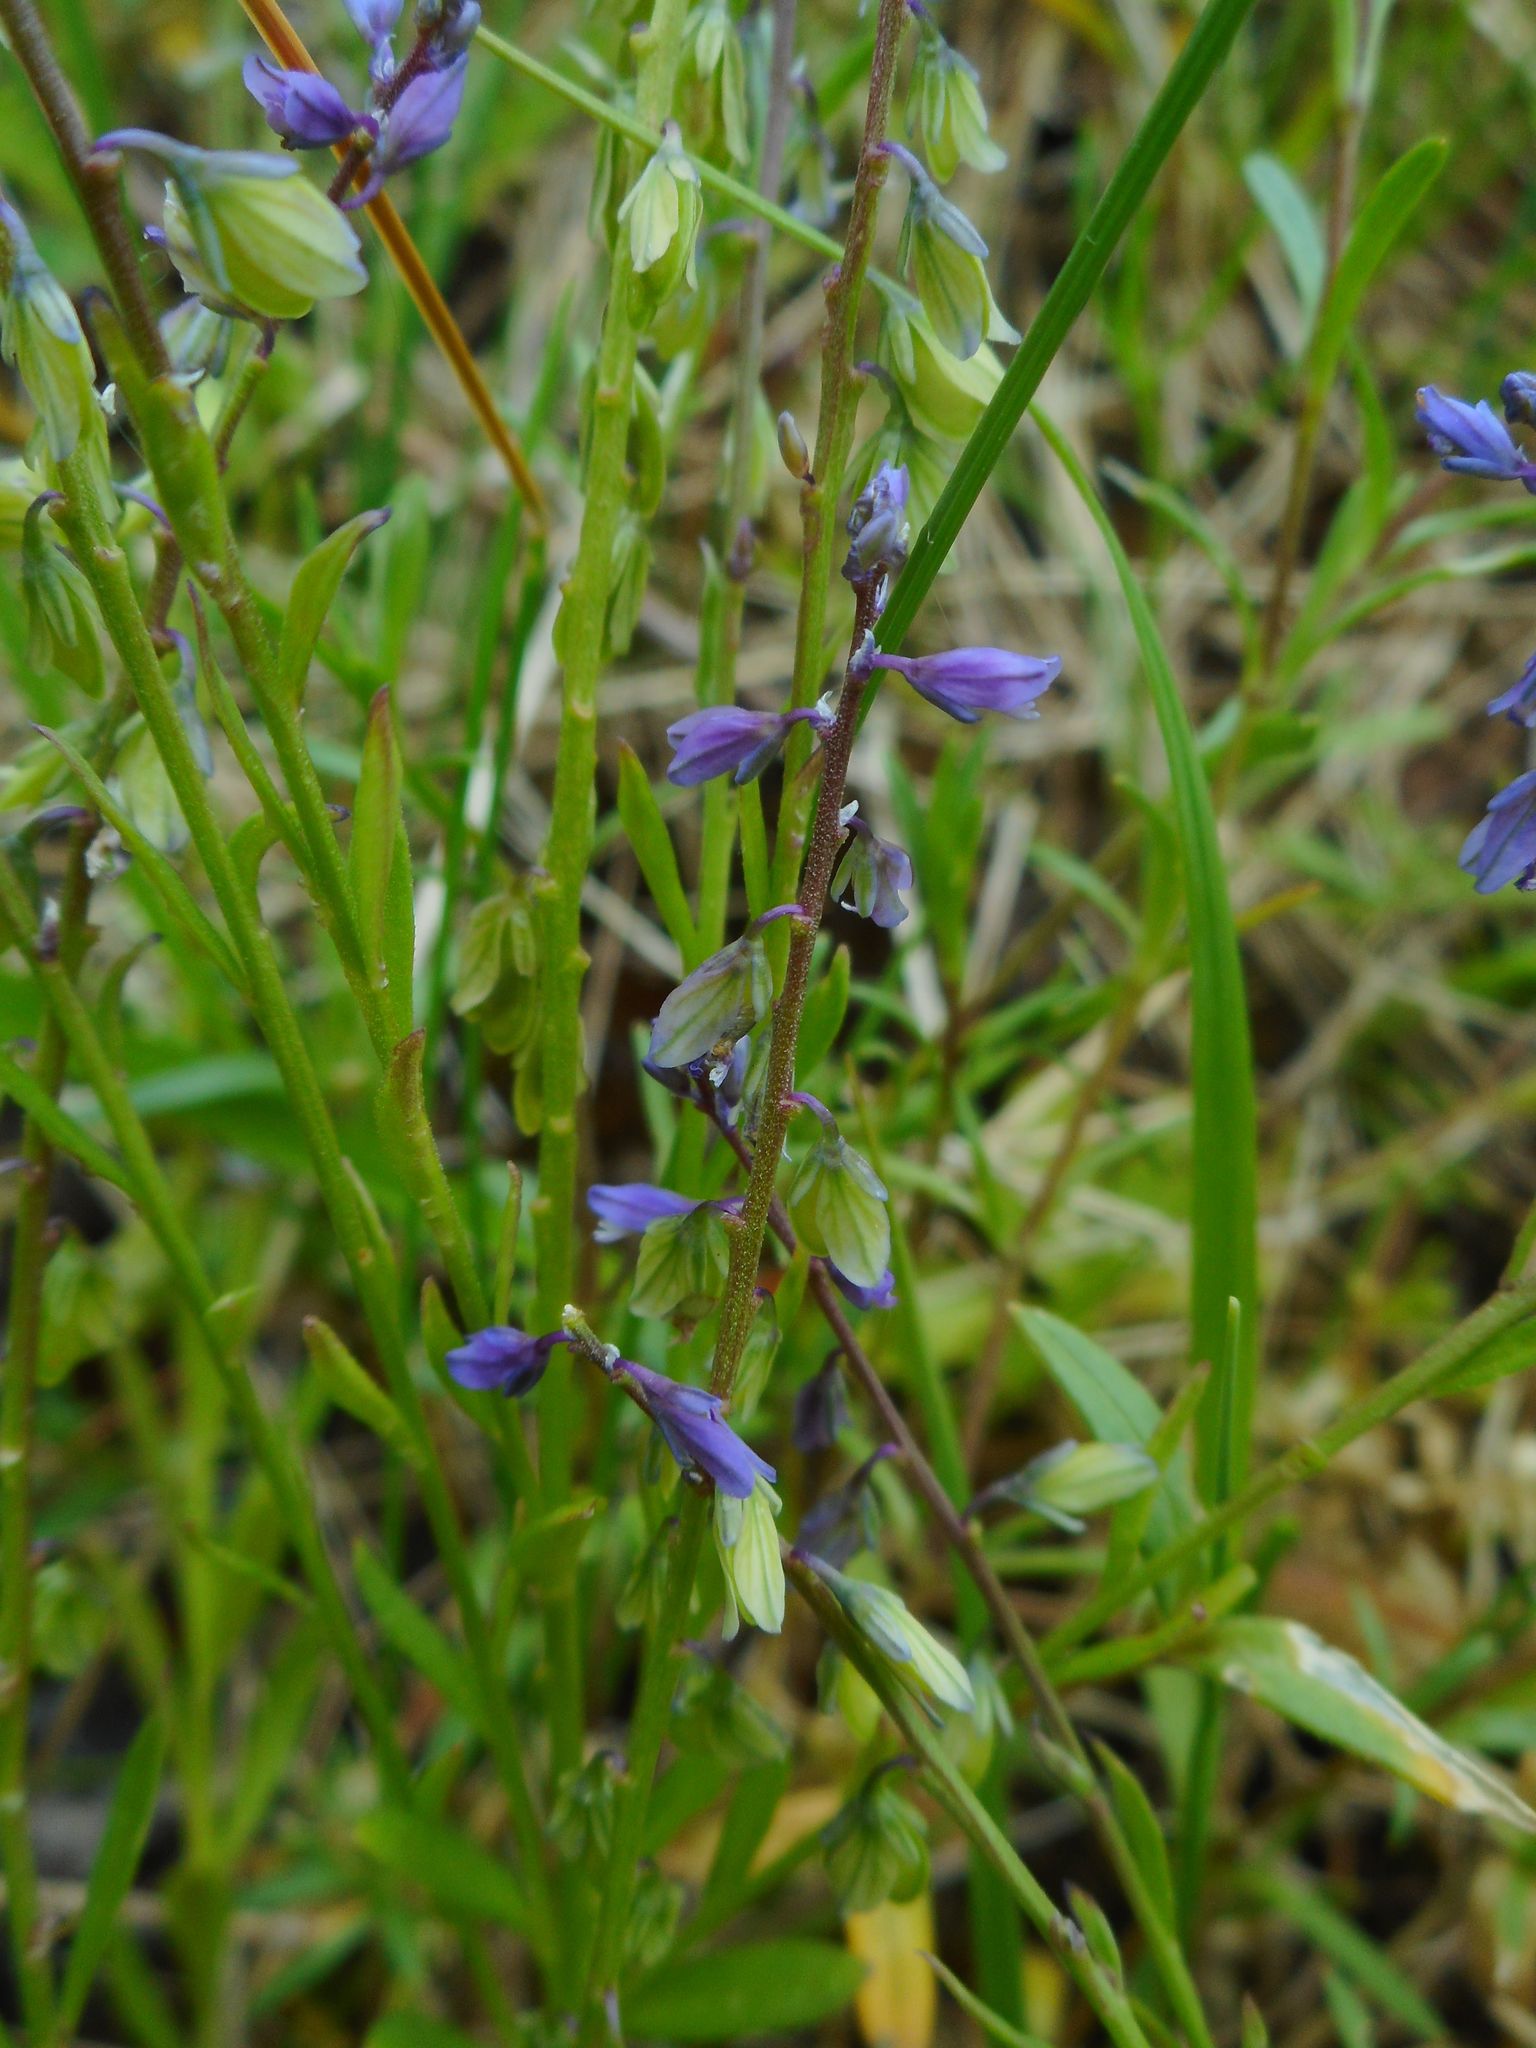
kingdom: Plantae
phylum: Tracheophyta
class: Magnoliopsida
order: Fabales
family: Polygalaceae
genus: Polygala
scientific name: Polygala amarella
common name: Dwarf milkwort
